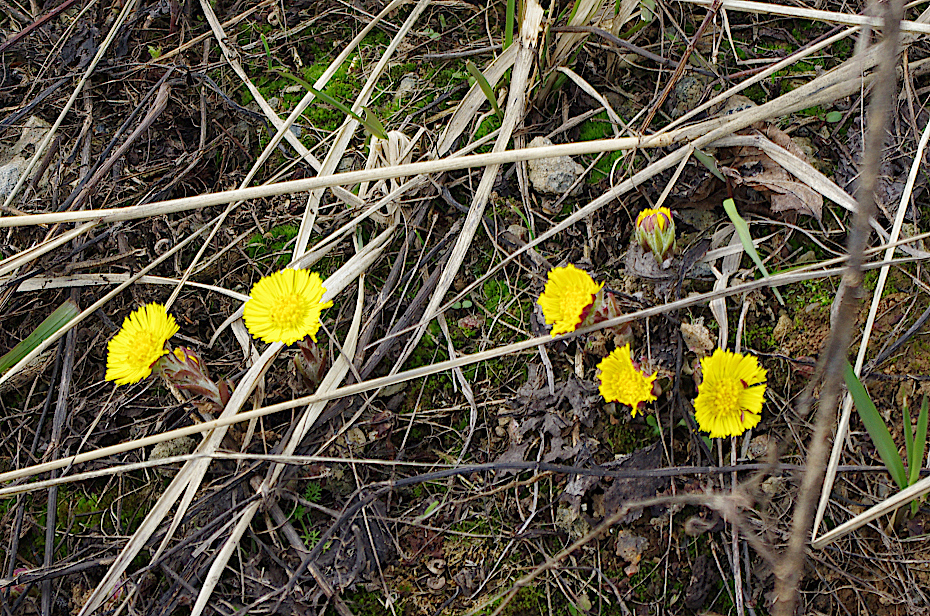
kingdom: Plantae
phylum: Tracheophyta
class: Magnoliopsida
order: Asterales
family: Asteraceae
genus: Tussilago
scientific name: Tussilago farfara
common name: Coltsfoot
